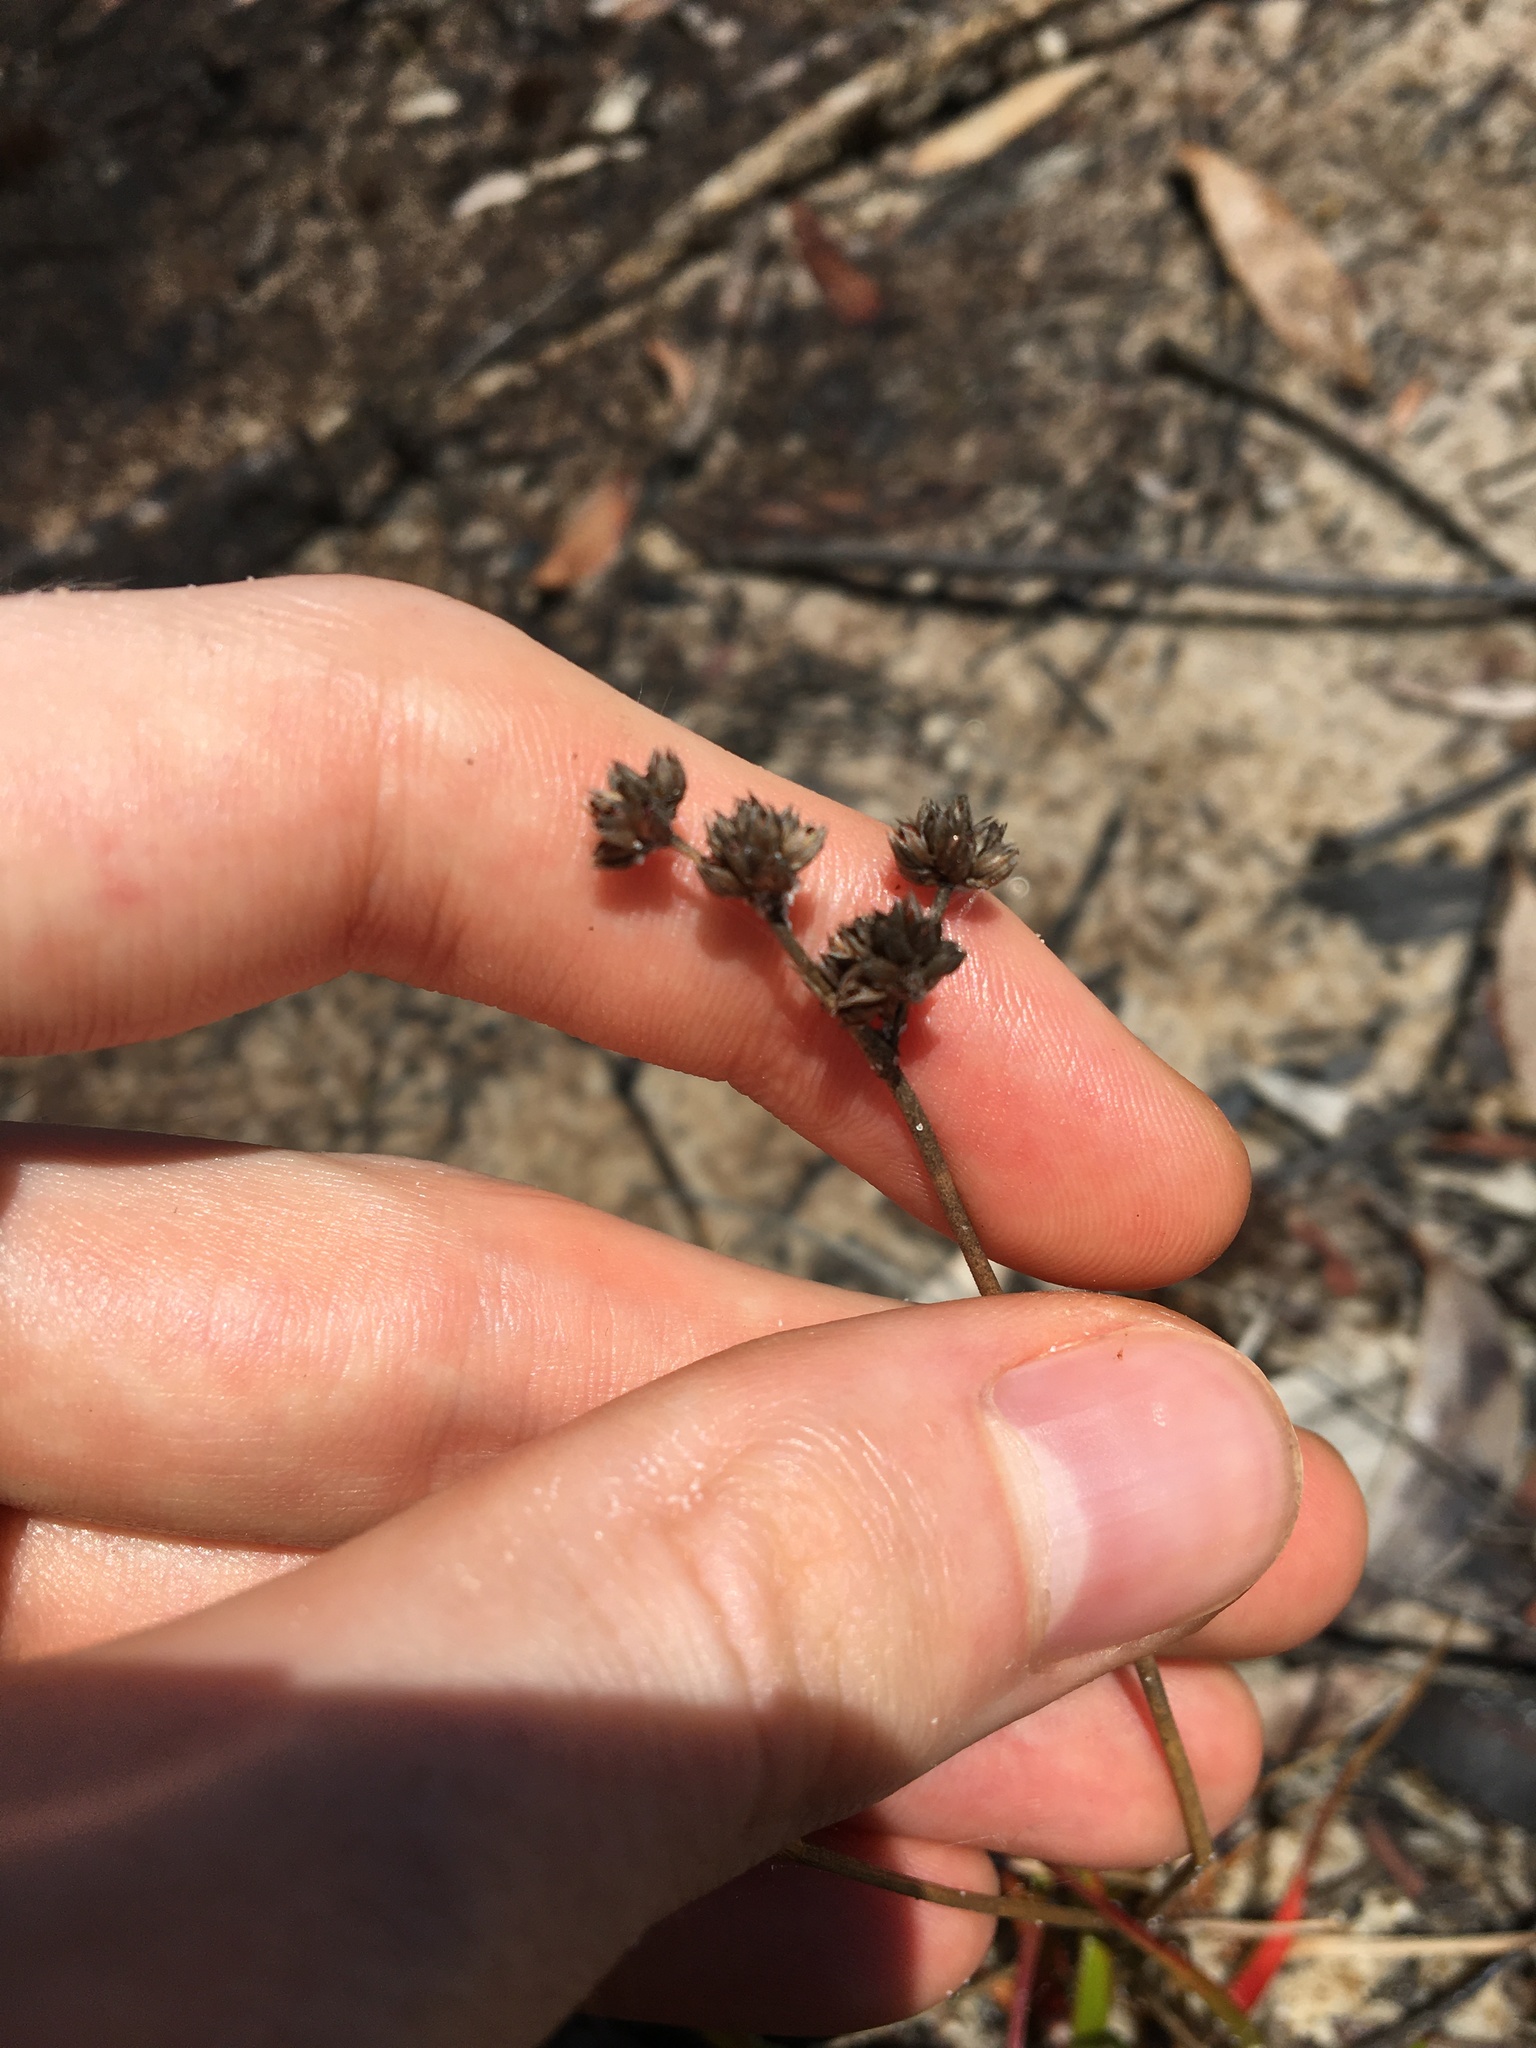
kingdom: Plantae
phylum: Tracheophyta
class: Liliopsida
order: Poales
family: Juncaceae
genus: Juncus
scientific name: Juncus planifolius
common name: Broadleaf rush
